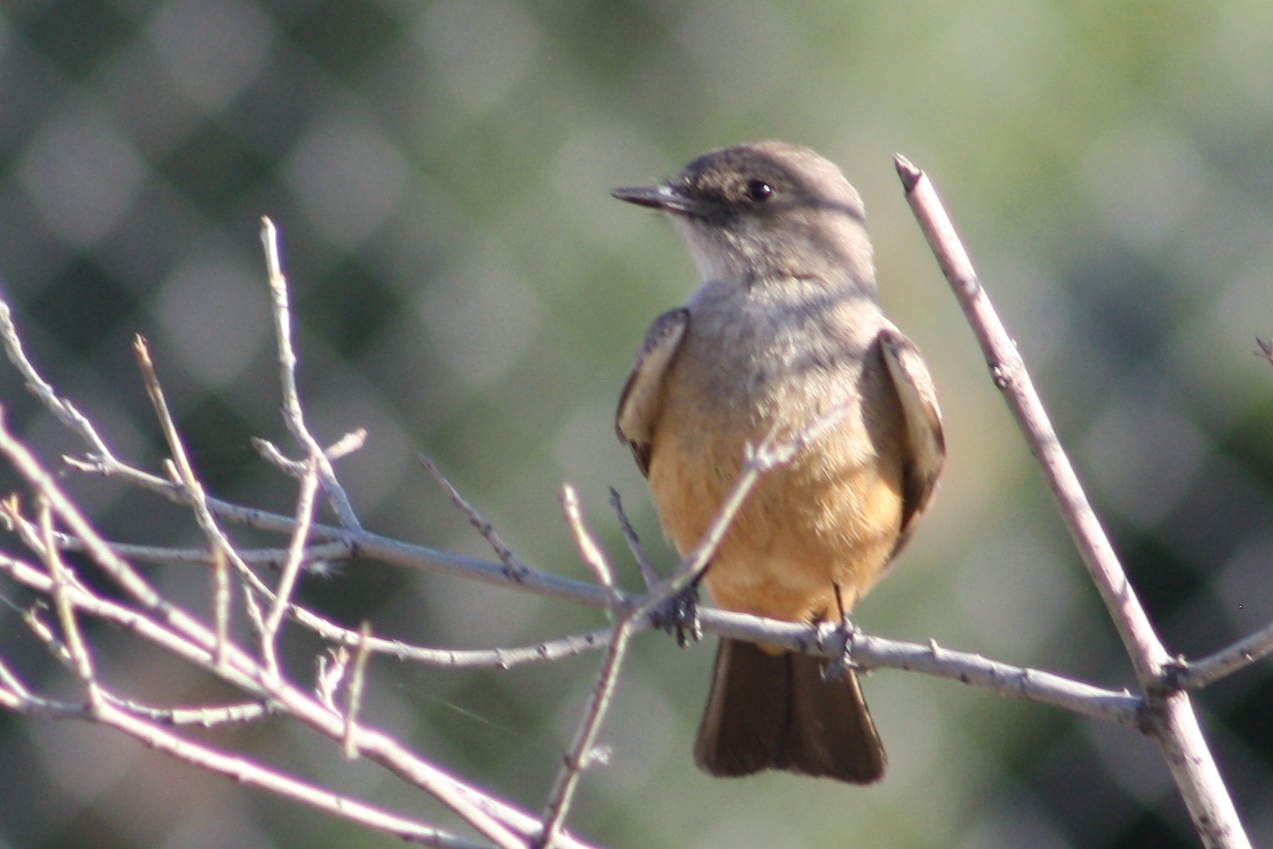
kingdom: Animalia
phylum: Chordata
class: Aves
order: Passeriformes
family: Tyrannidae
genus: Sayornis
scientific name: Sayornis saya
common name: Say's phoebe
